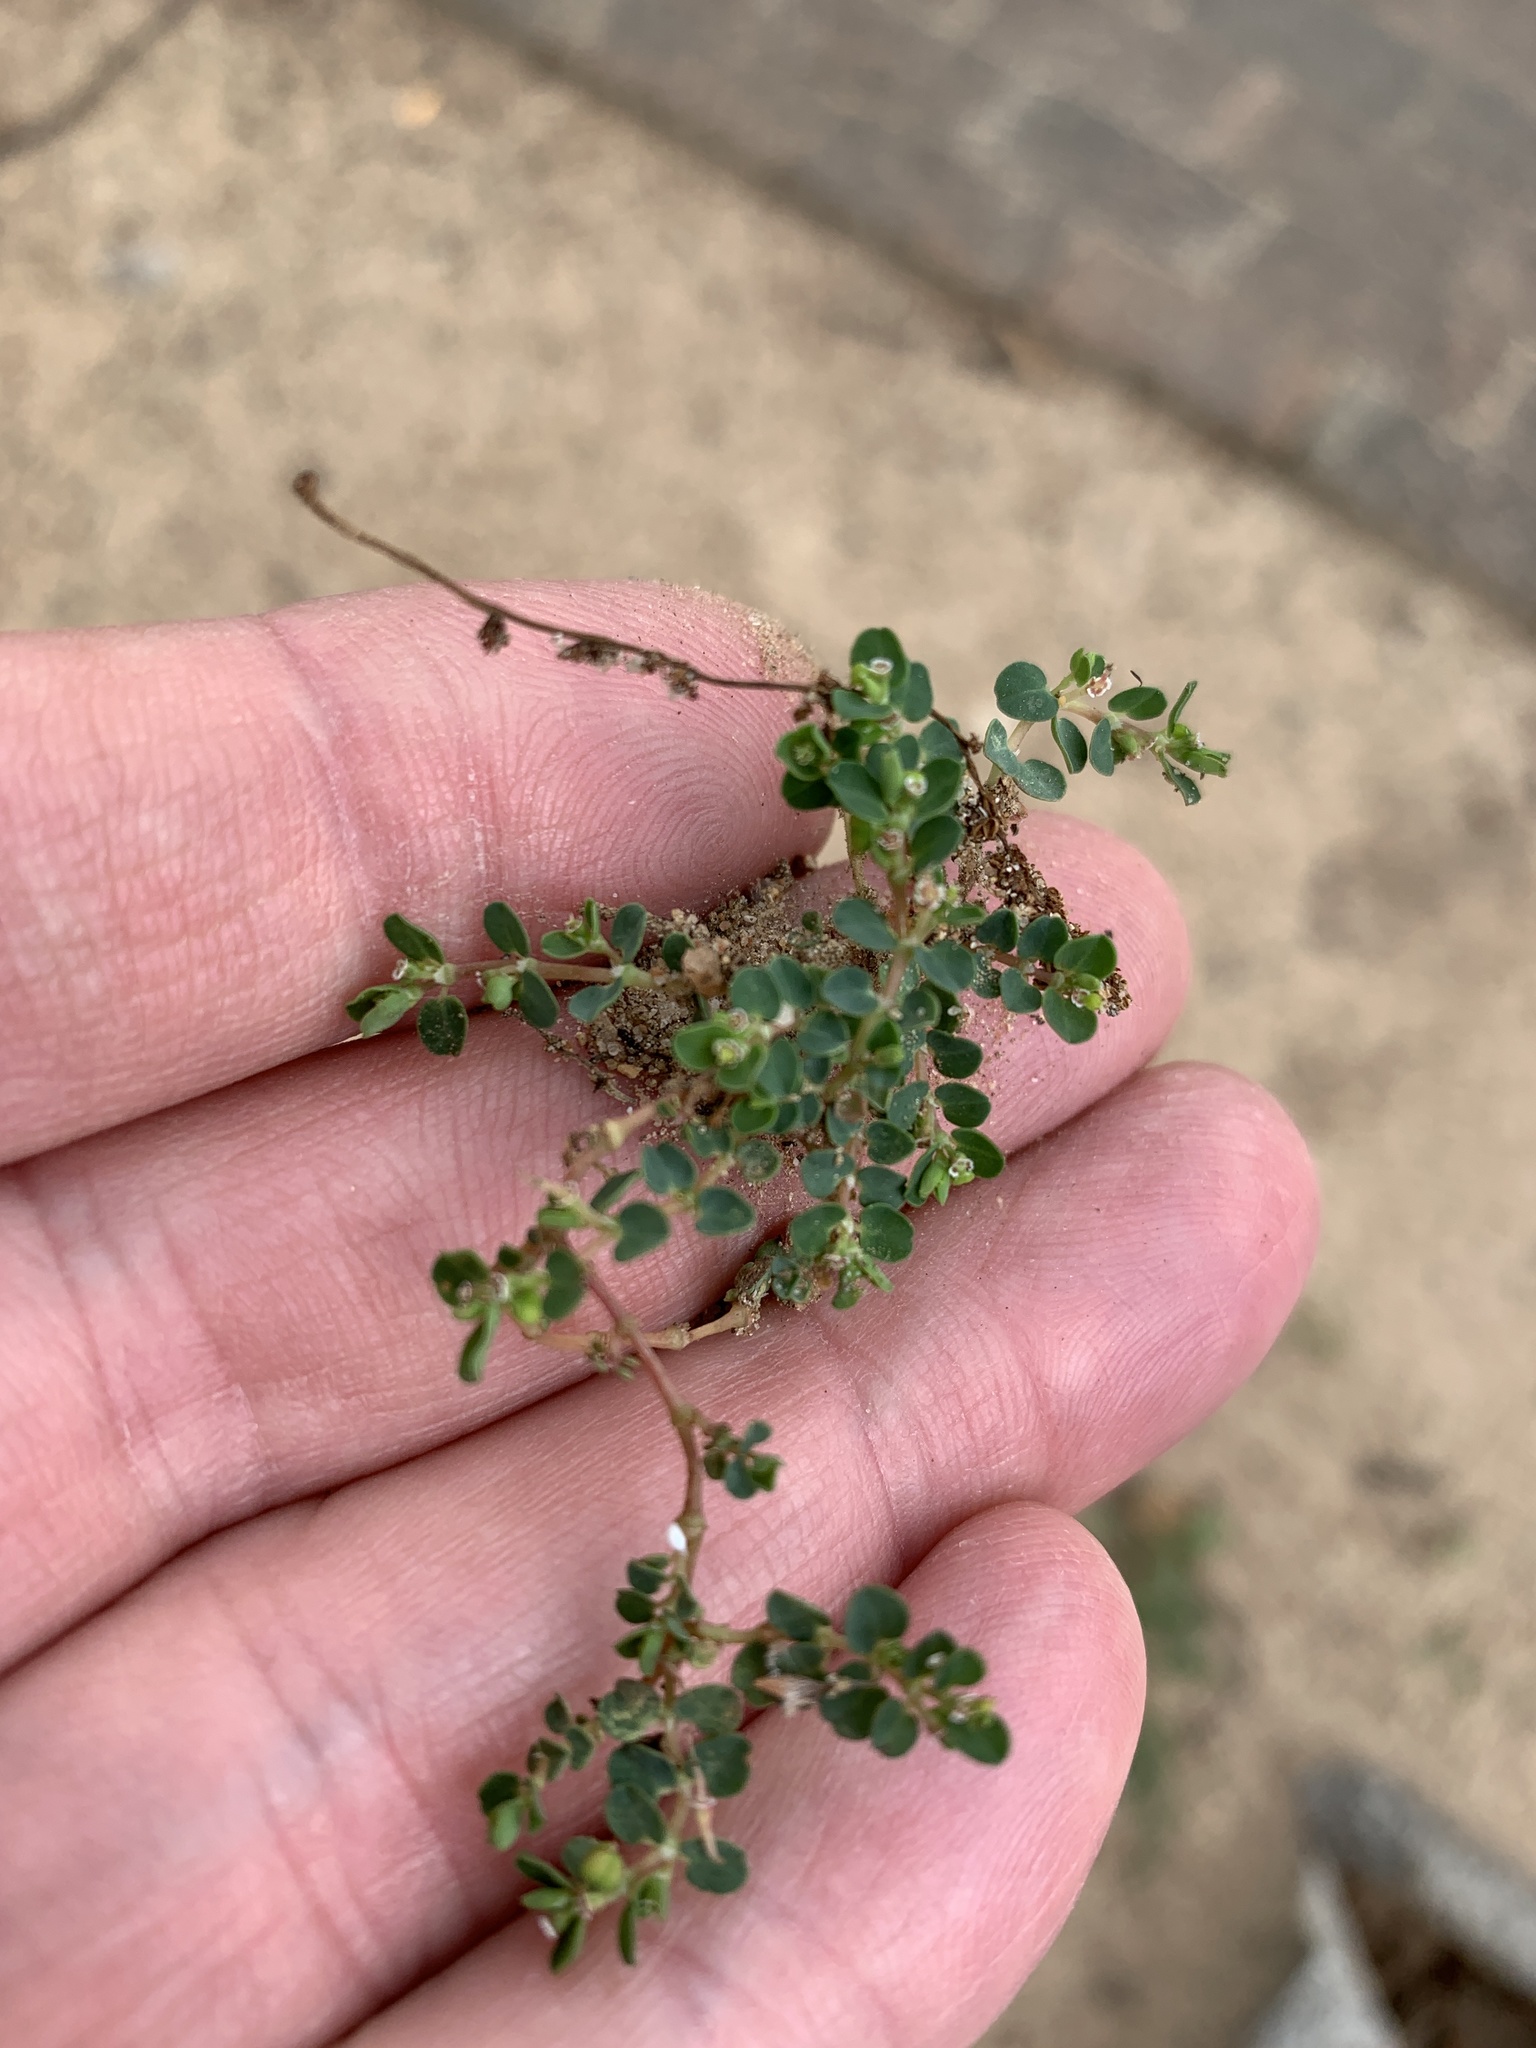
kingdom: Plantae
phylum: Tracheophyta
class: Magnoliopsida
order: Malpighiales
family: Euphorbiaceae
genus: Euphorbia
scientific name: Euphorbia serpens
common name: Matted sandmat
